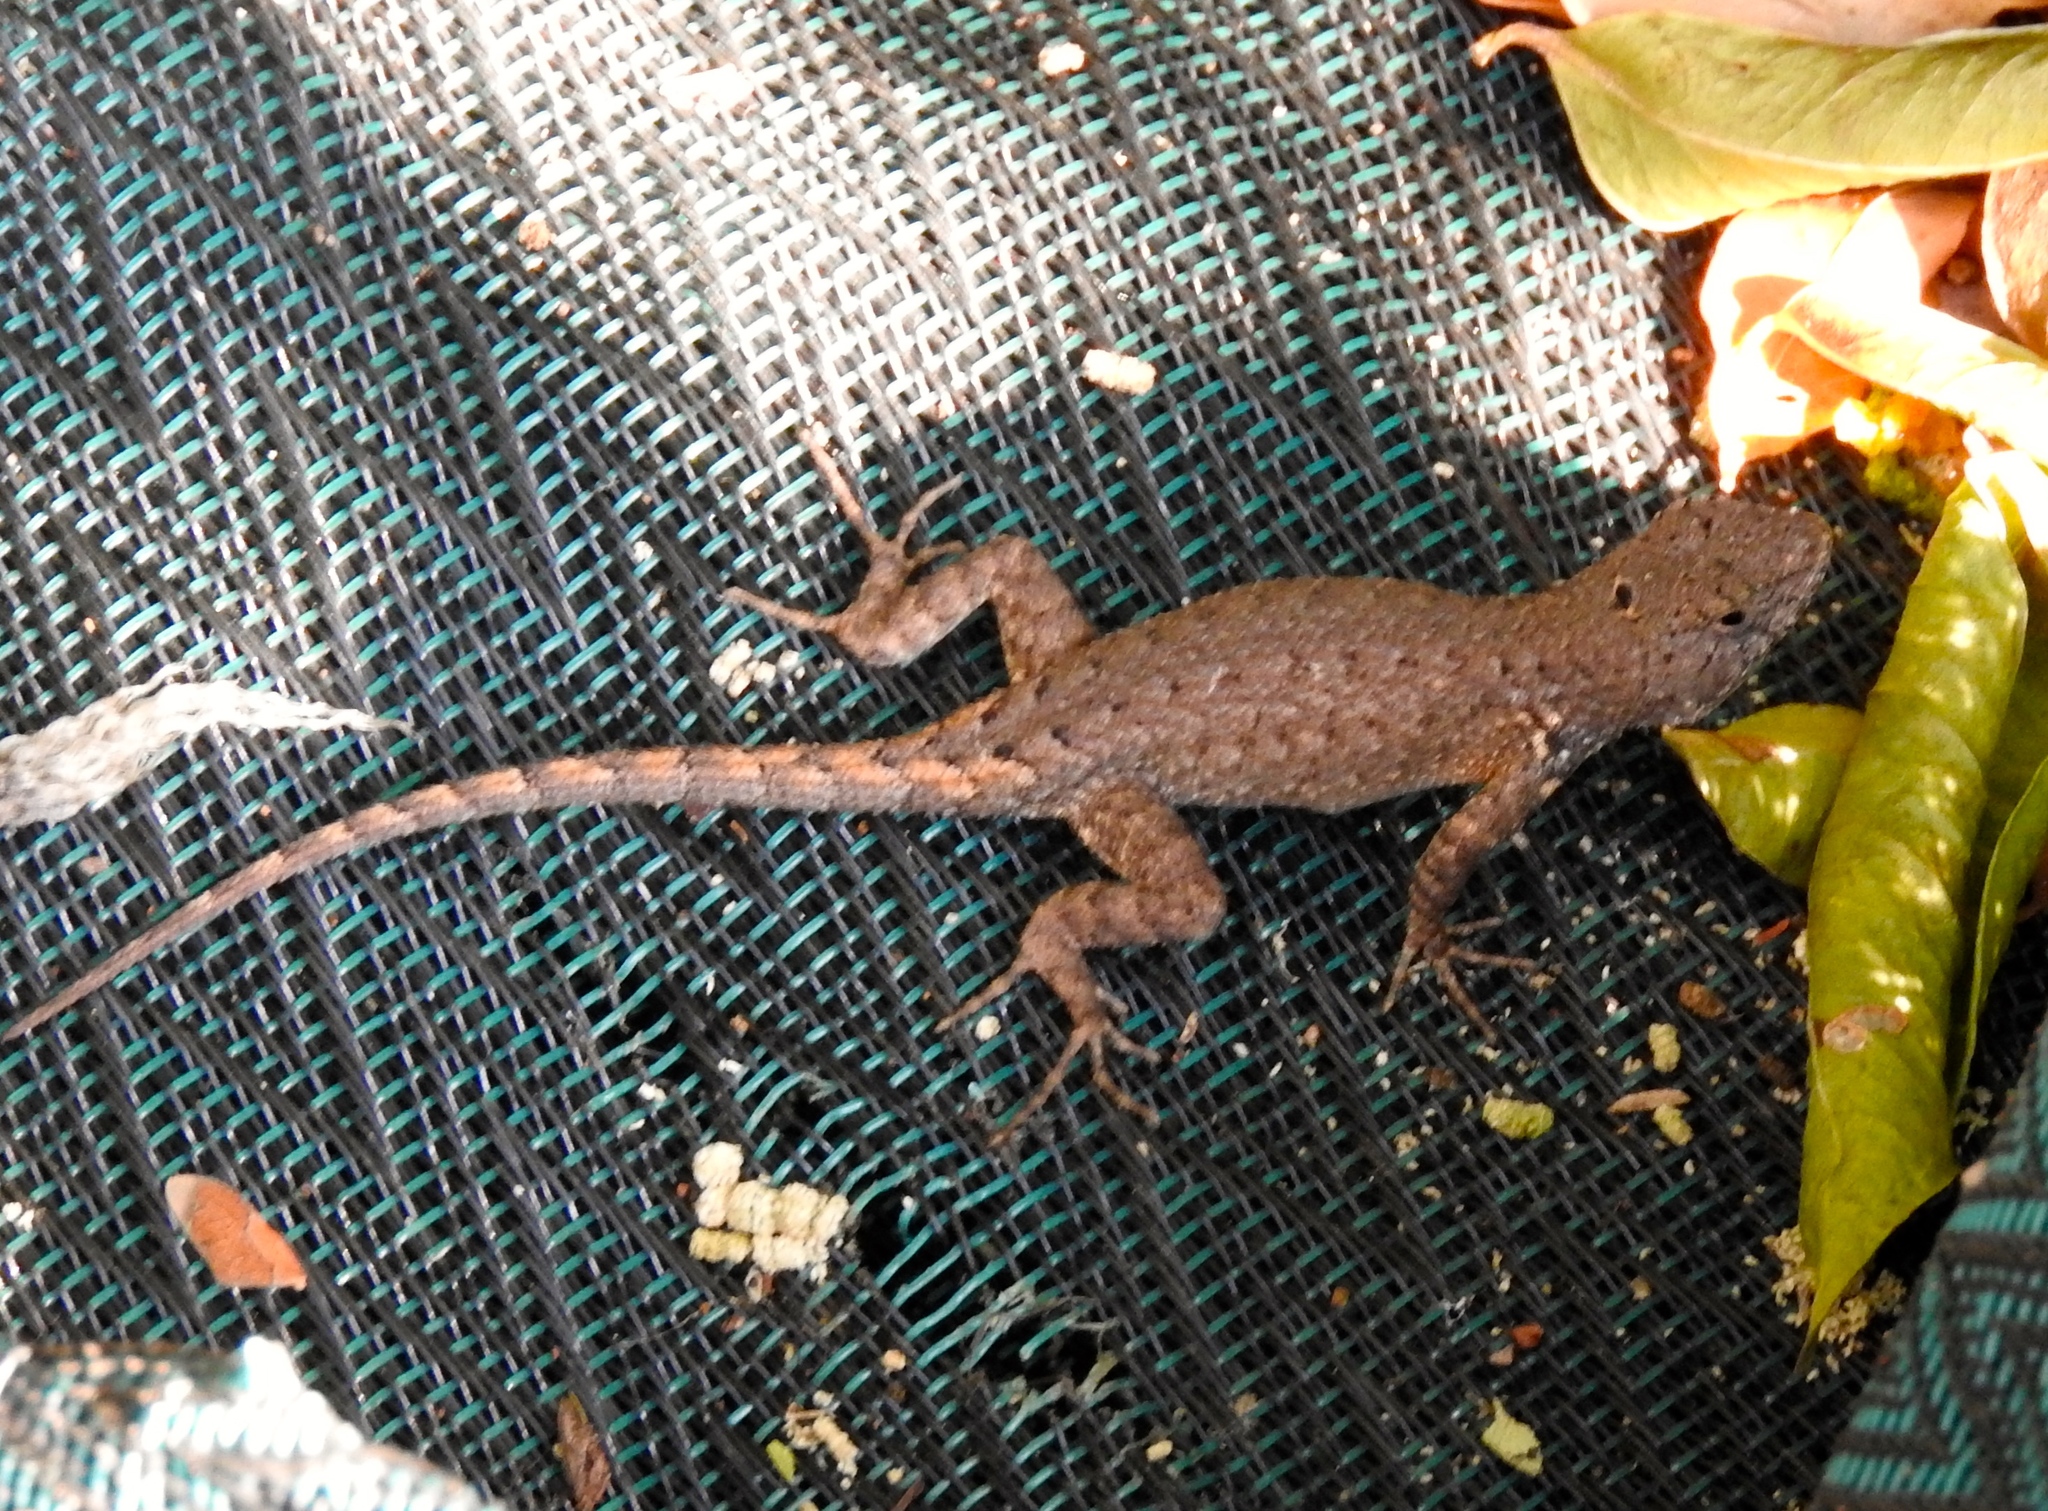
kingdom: Animalia
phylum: Chordata
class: Squamata
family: Phrynosomatidae
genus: Sceloporus
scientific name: Sceloporus nelsoni
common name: Nelson's spiny lizard
